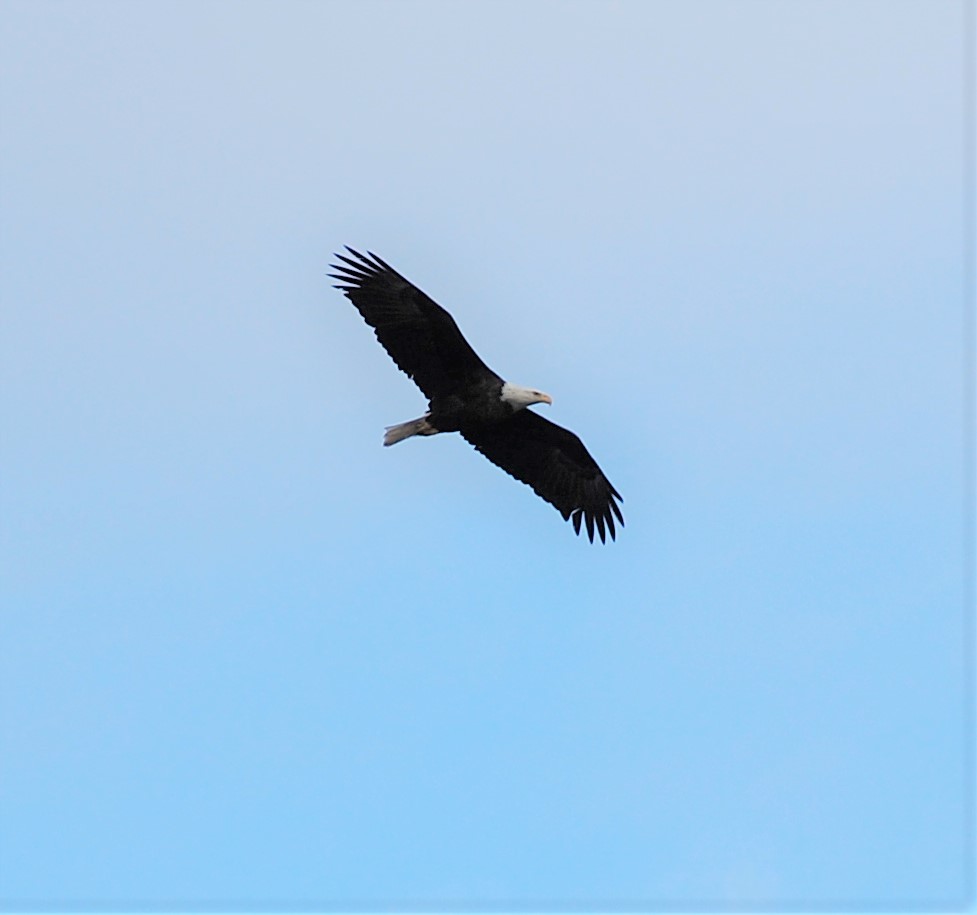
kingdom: Animalia
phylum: Chordata
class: Aves
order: Accipitriformes
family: Accipitridae
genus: Haliaeetus
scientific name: Haliaeetus leucocephalus
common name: Bald eagle
